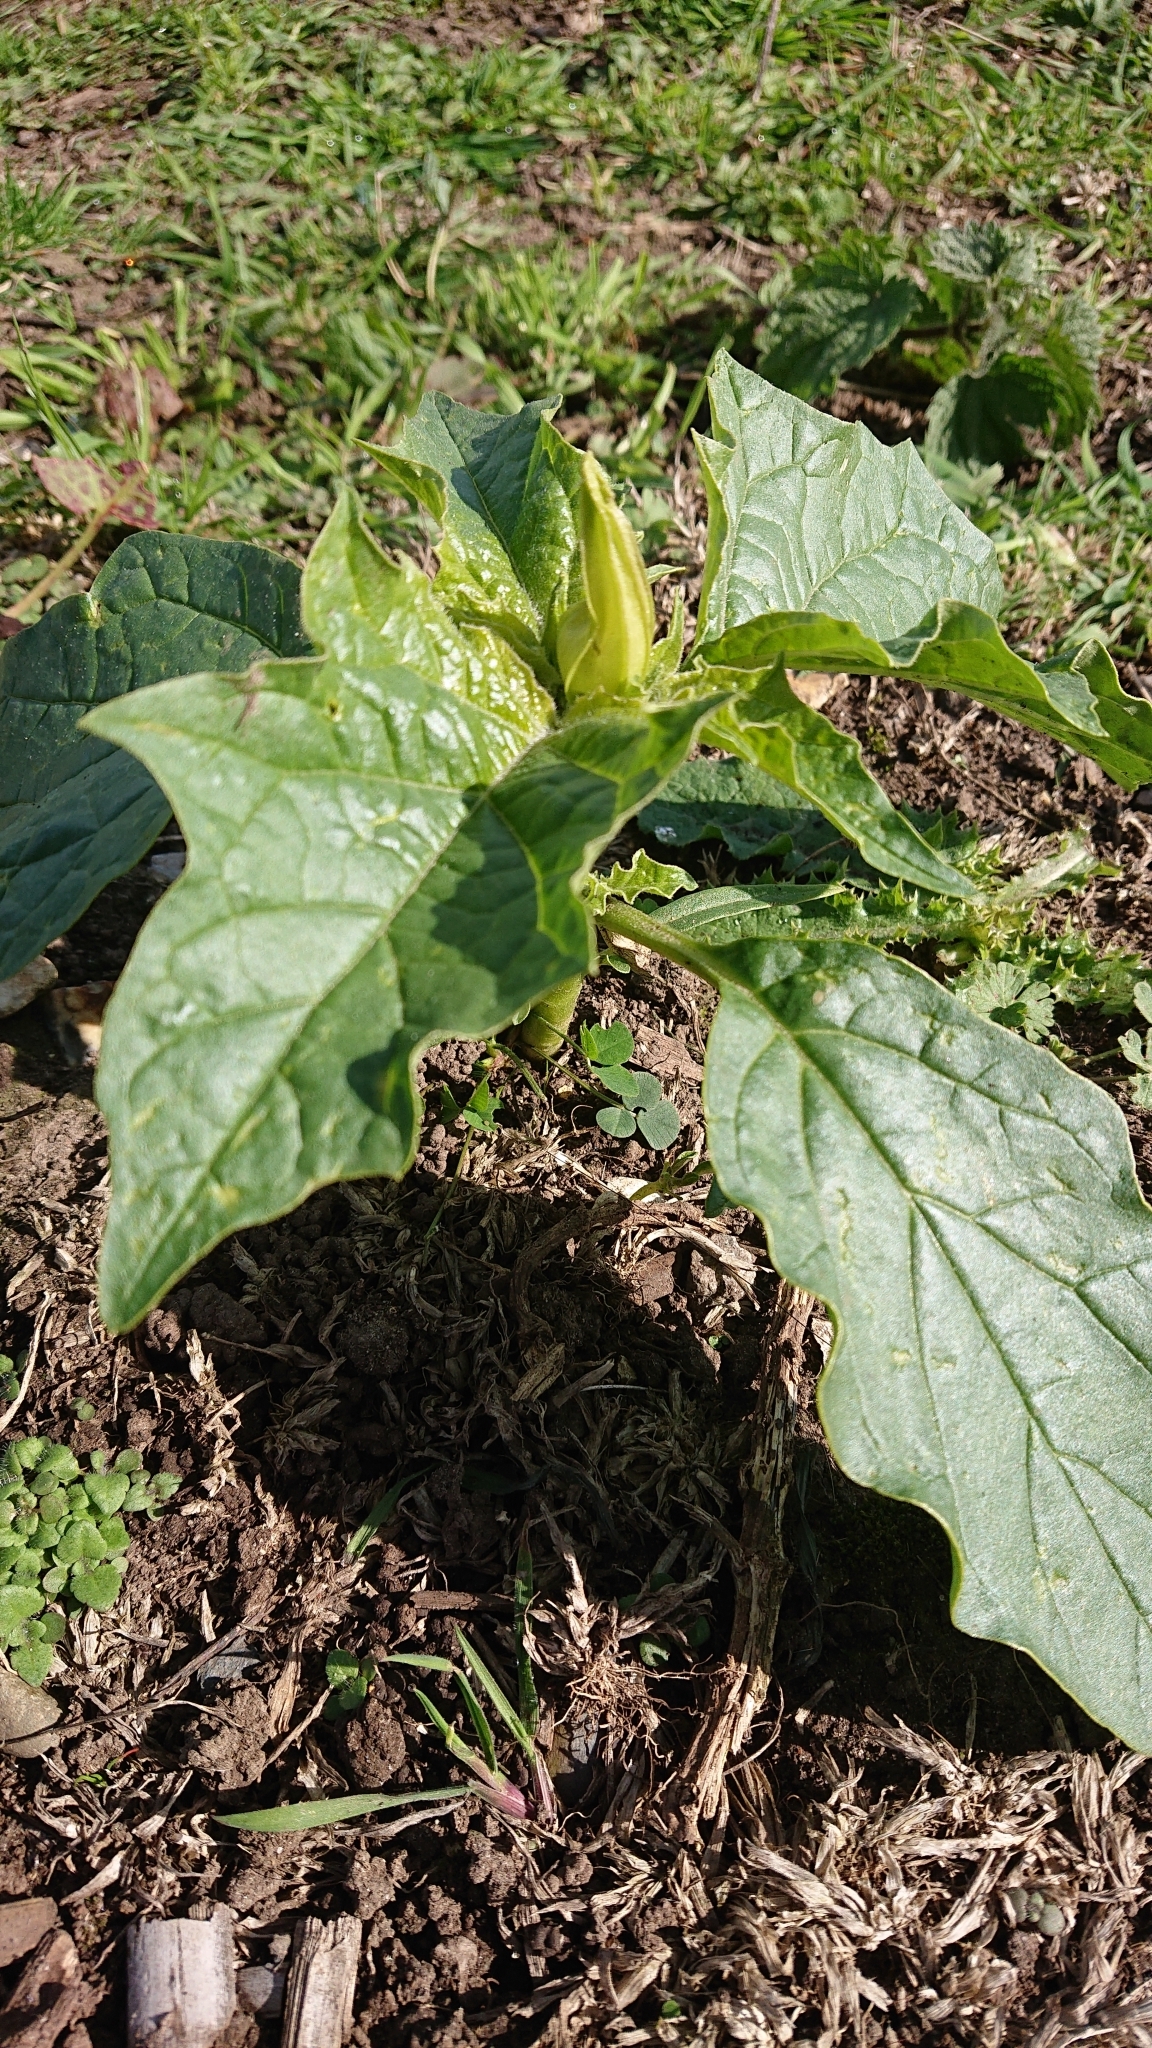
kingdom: Plantae
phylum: Tracheophyta
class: Magnoliopsida
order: Solanales
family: Solanaceae
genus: Datura
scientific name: Datura stramonium
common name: Thorn-apple
